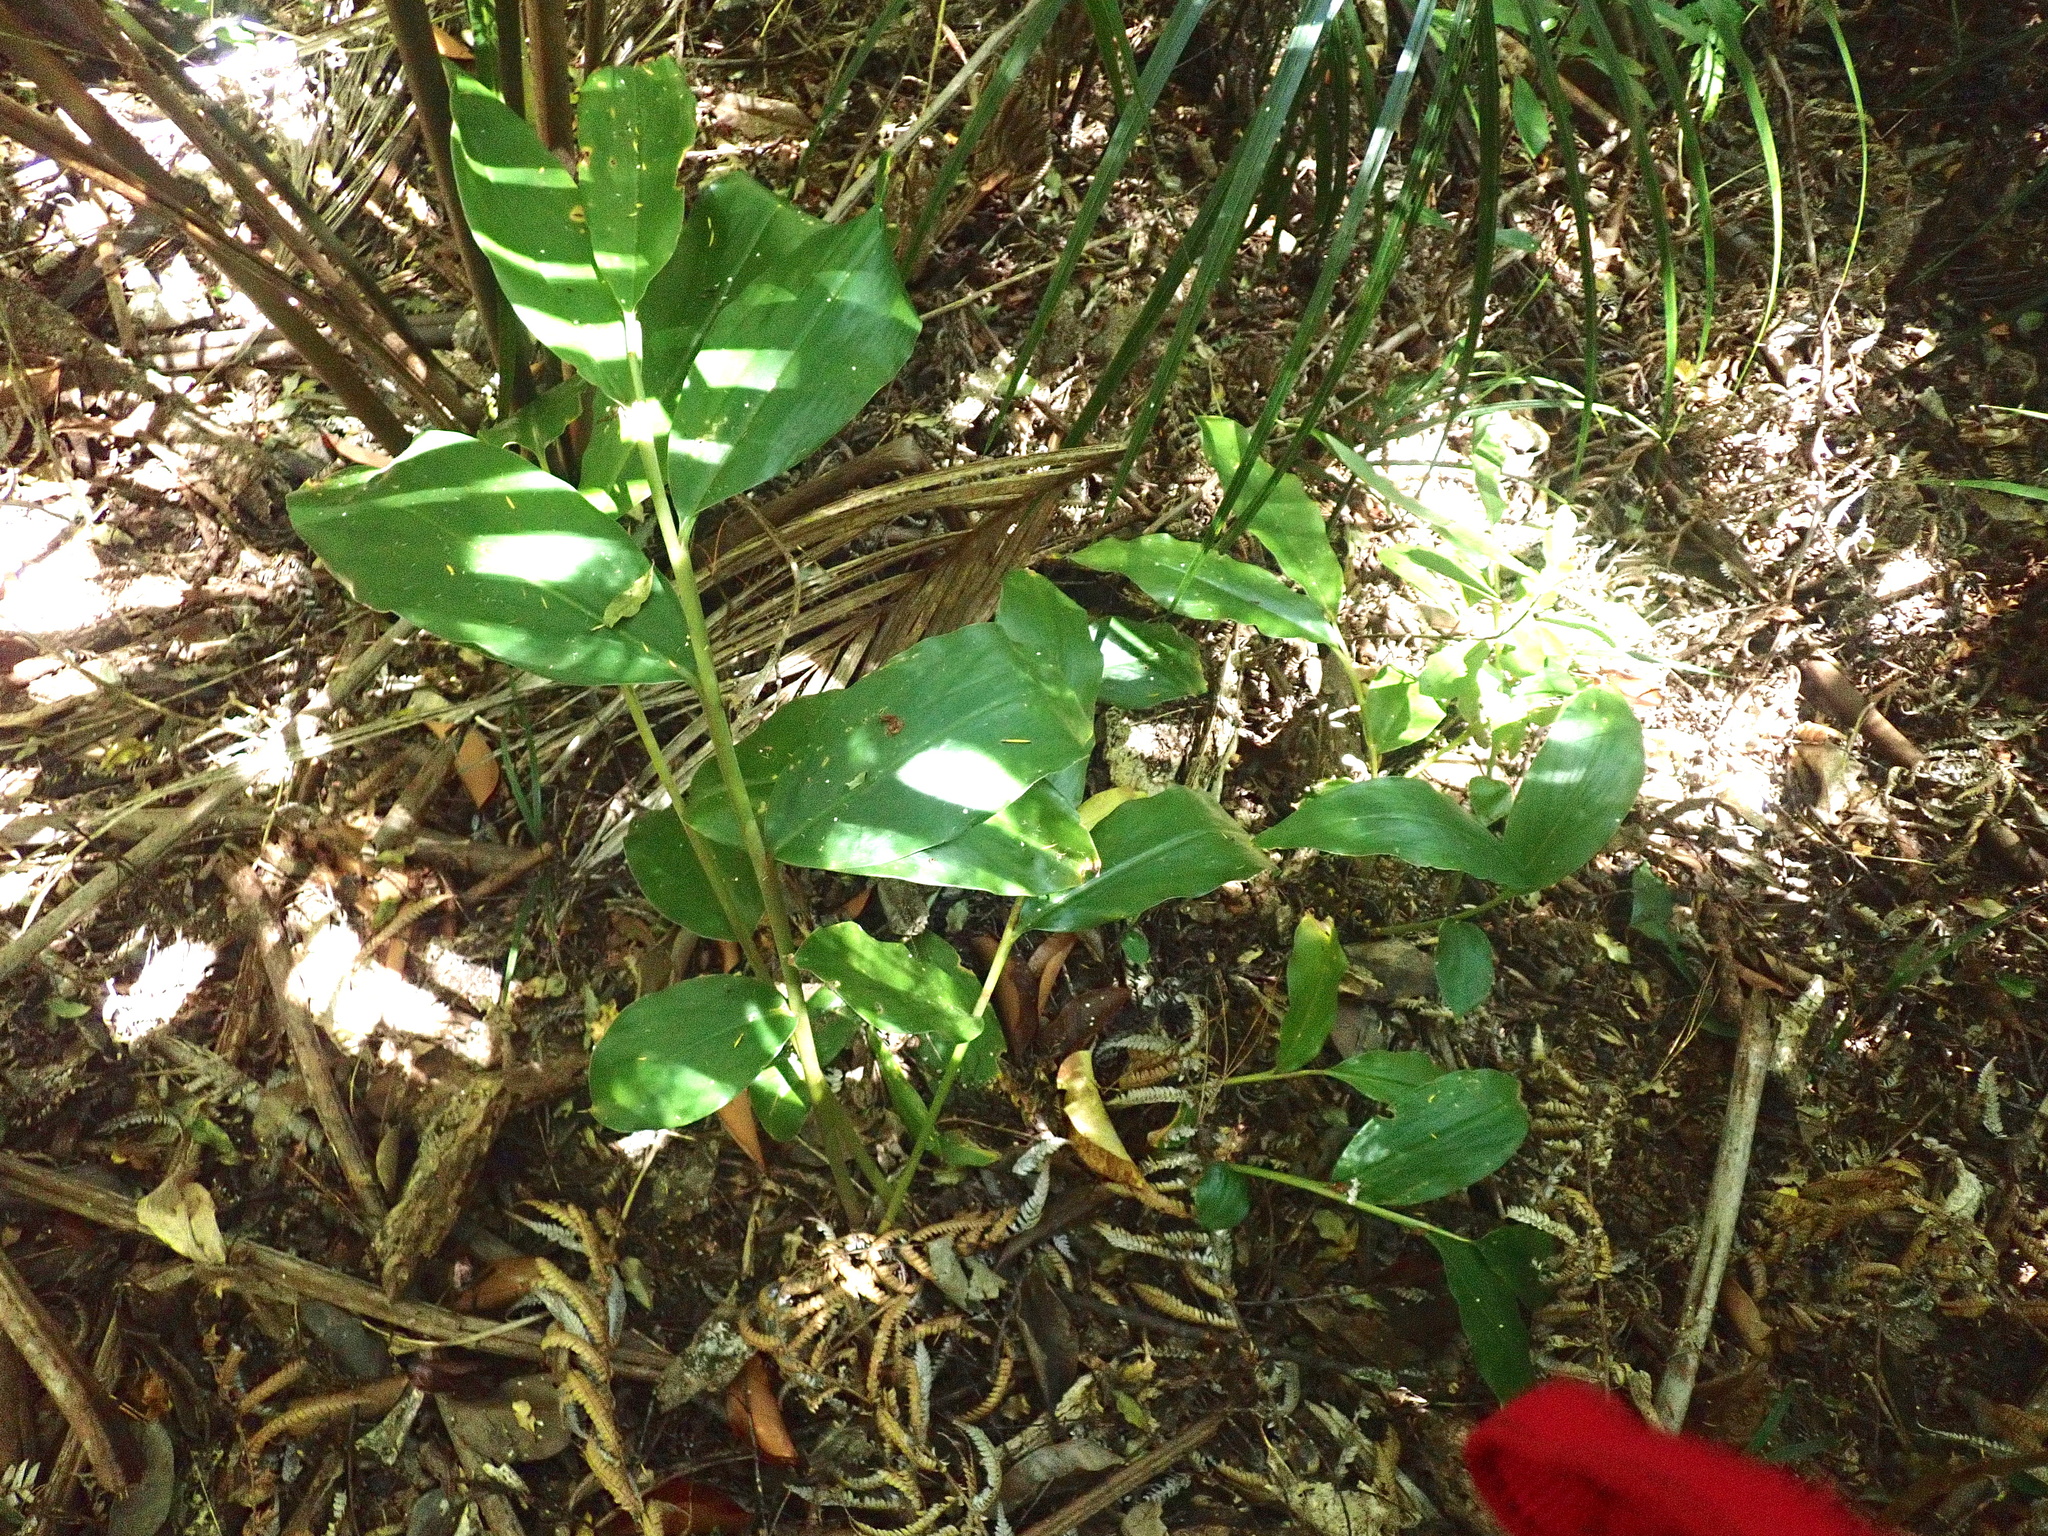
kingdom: Plantae
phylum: Tracheophyta
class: Liliopsida
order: Zingiberales
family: Zingiberaceae
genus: Hedychium
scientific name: Hedychium gardnerianum
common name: Himalayan ginger
